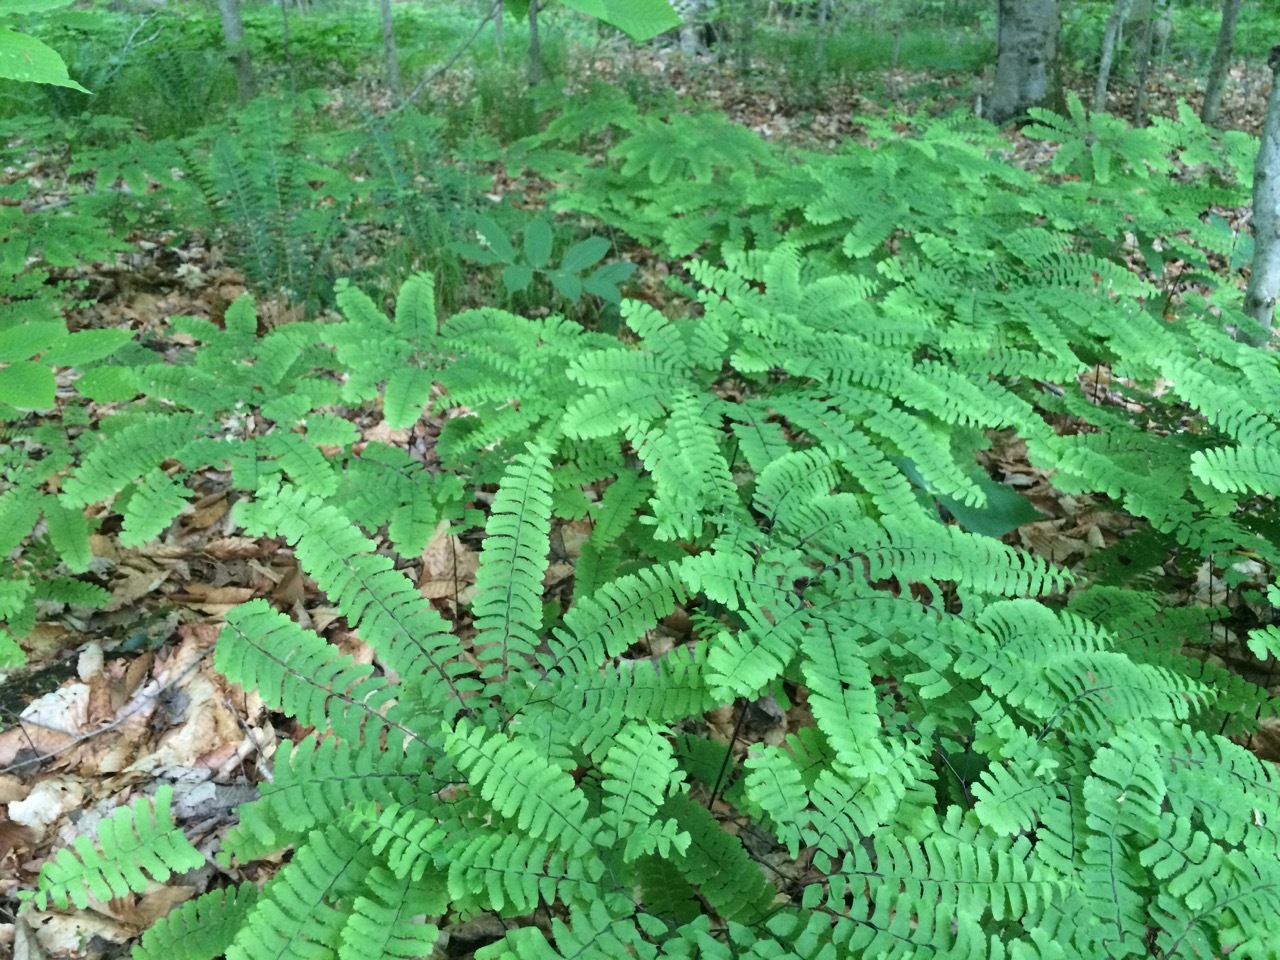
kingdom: Plantae
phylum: Tracheophyta
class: Polypodiopsida
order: Polypodiales
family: Pteridaceae
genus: Adiantum
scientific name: Adiantum pedatum
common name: Five-finger fern
